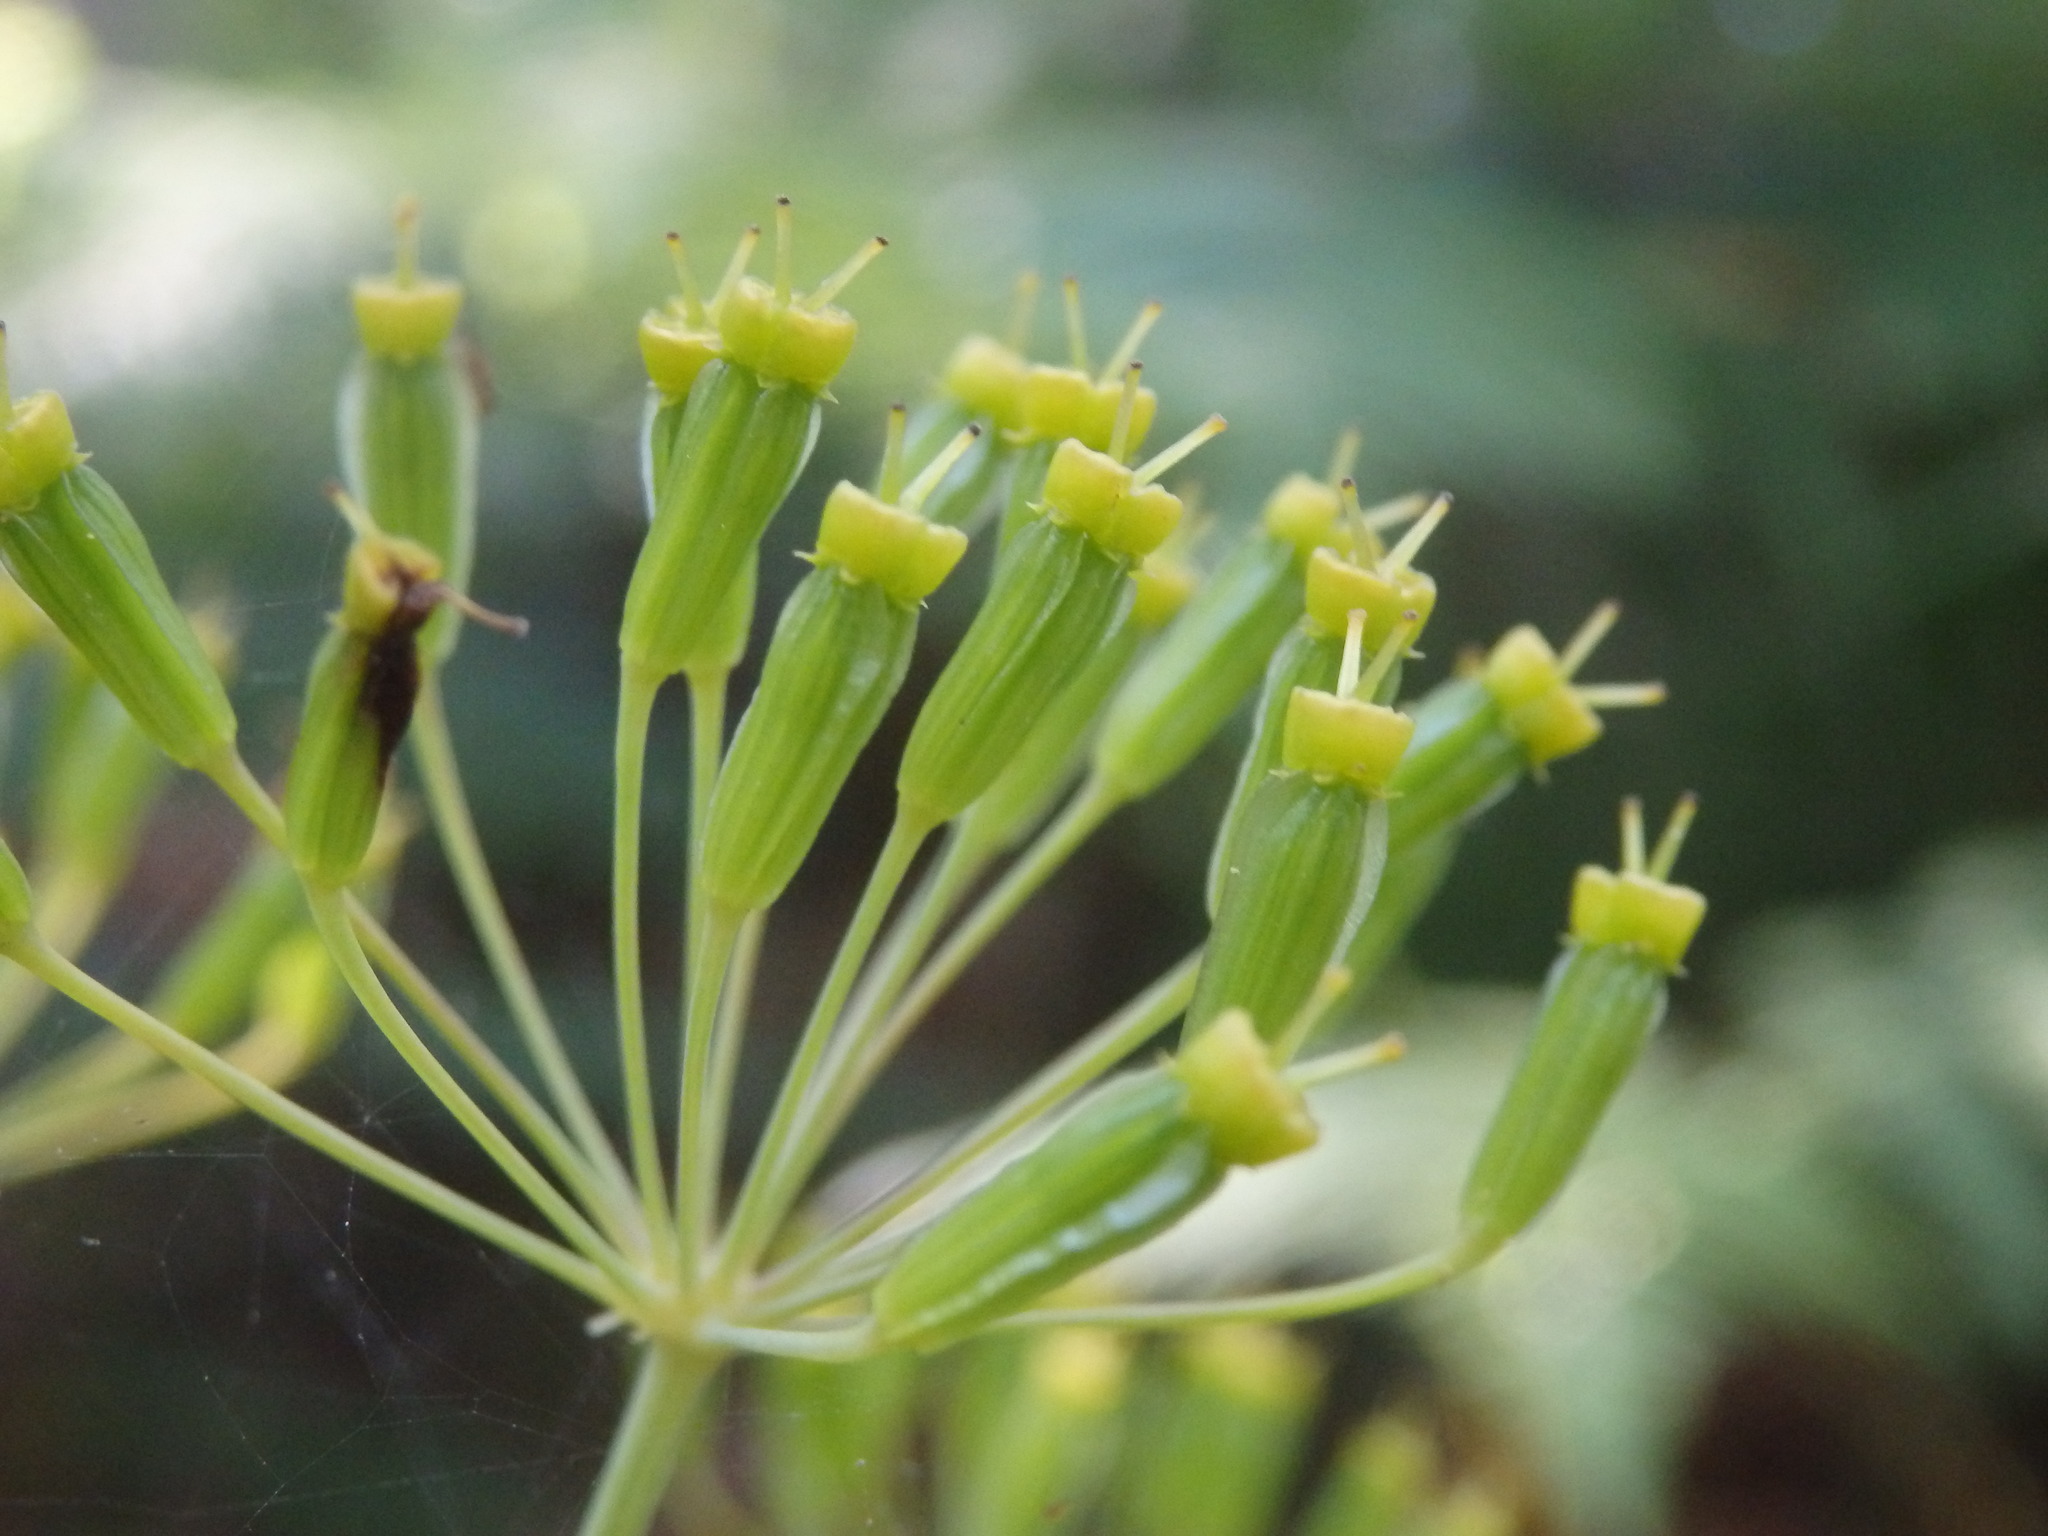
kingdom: Plantae
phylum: Tracheophyta
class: Magnoliopsida
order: Apiales
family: Apiaceae
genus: Thapsia
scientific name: Thapsia minor
